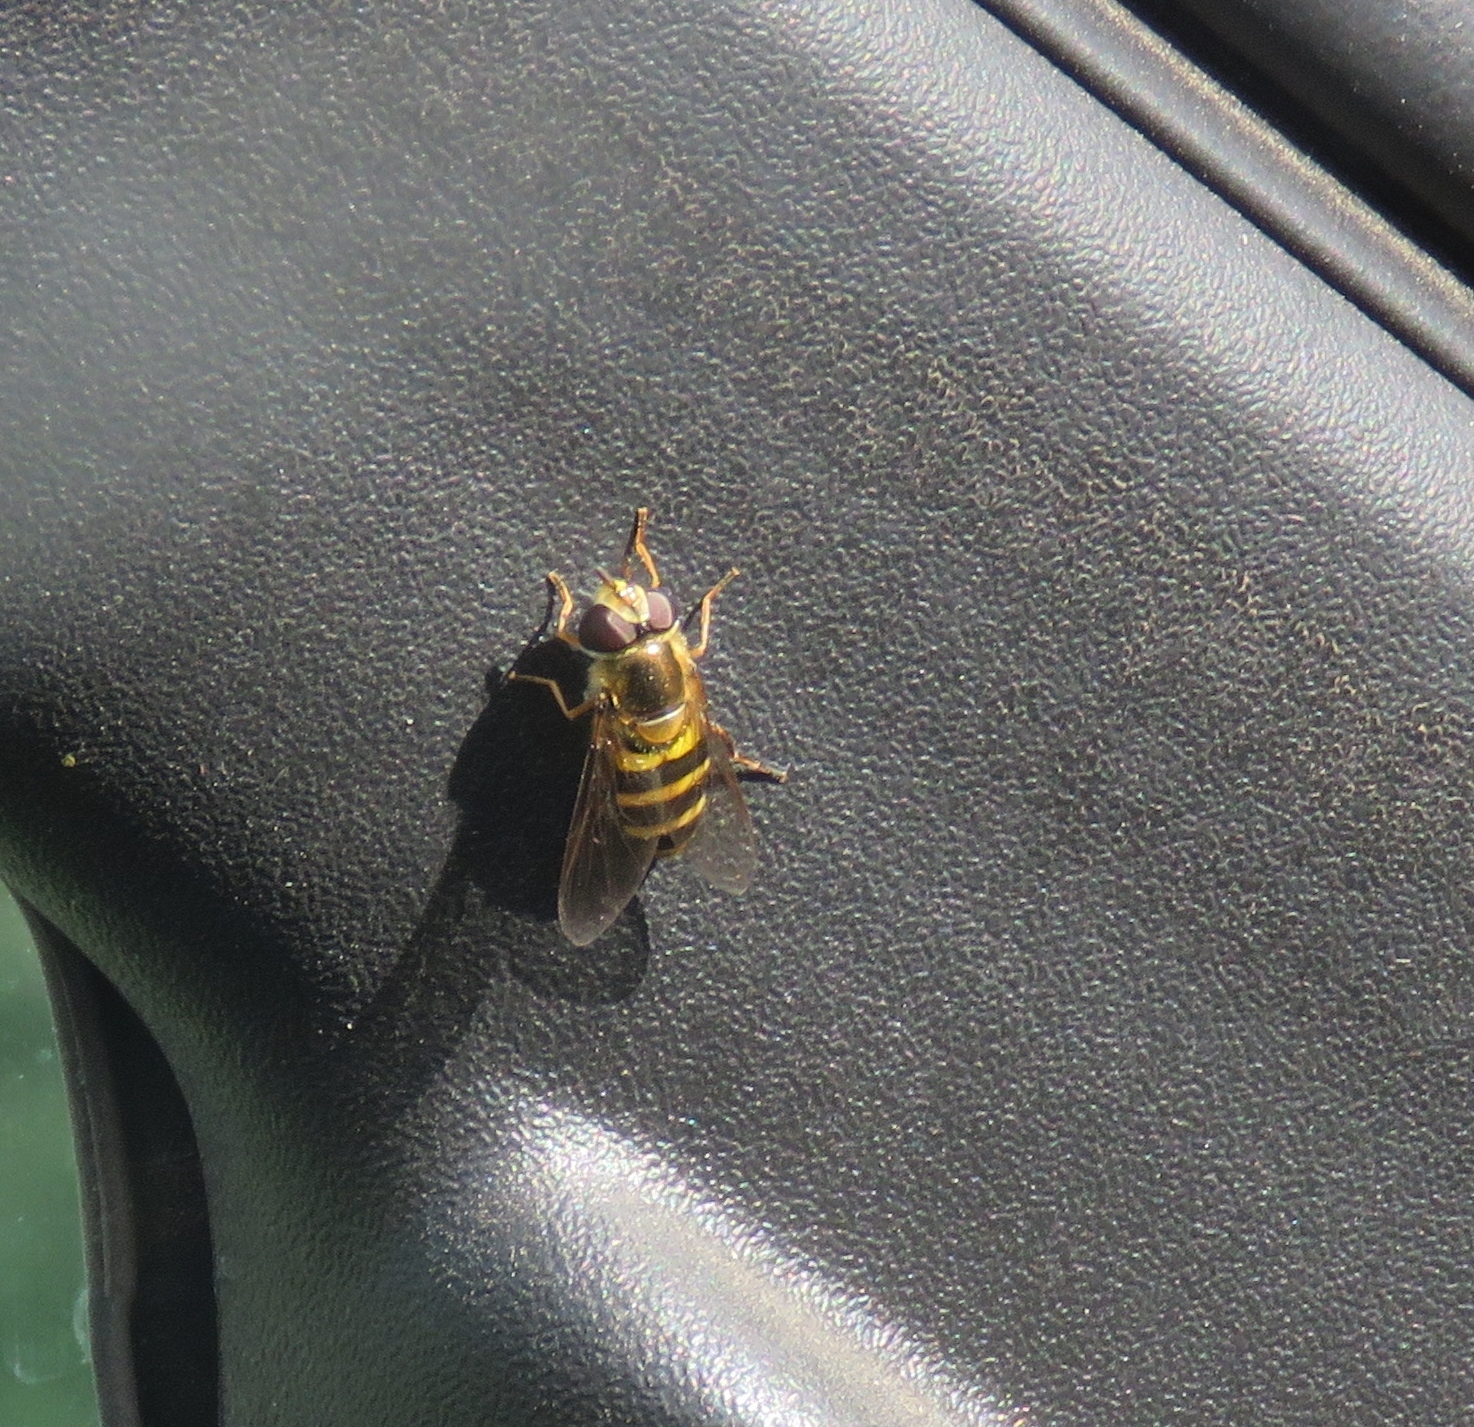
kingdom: Animalia
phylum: Arthropoda
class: Insecta
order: Diptera
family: Syrphidae
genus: Eupeodes
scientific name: Eupeodes
